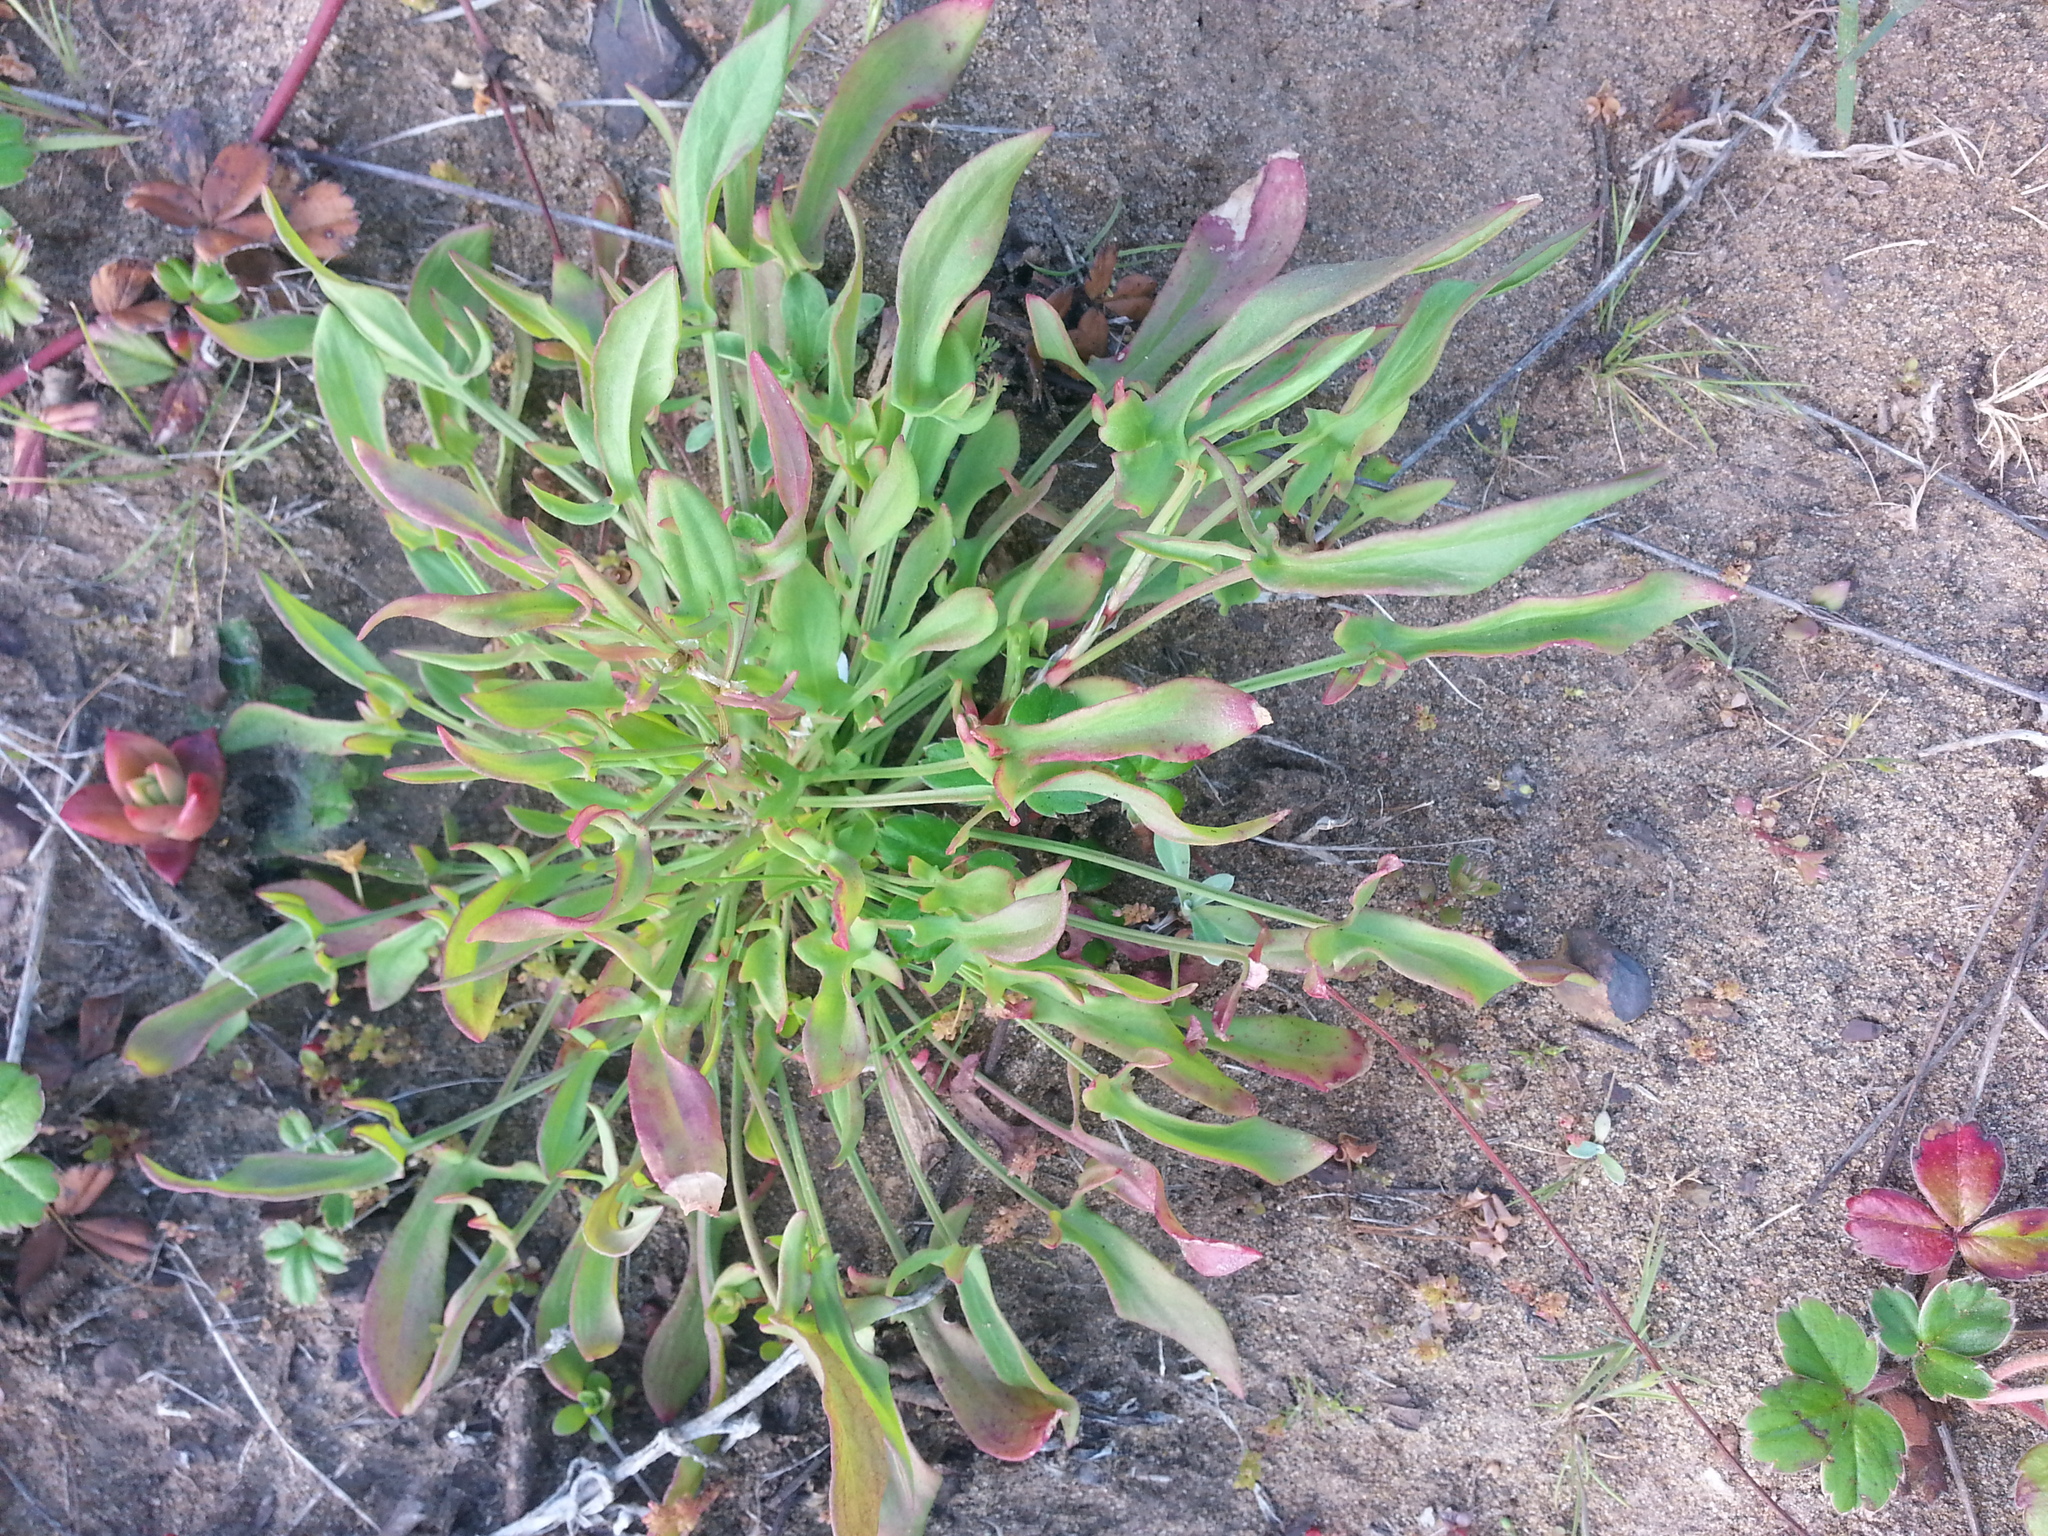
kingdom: Plantae
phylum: Tracheophyta
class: Magnoliopsida
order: Caryophyllales
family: Polygonaceae
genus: Rumex
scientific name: Rumex acetosella
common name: Common sheep sorrel
